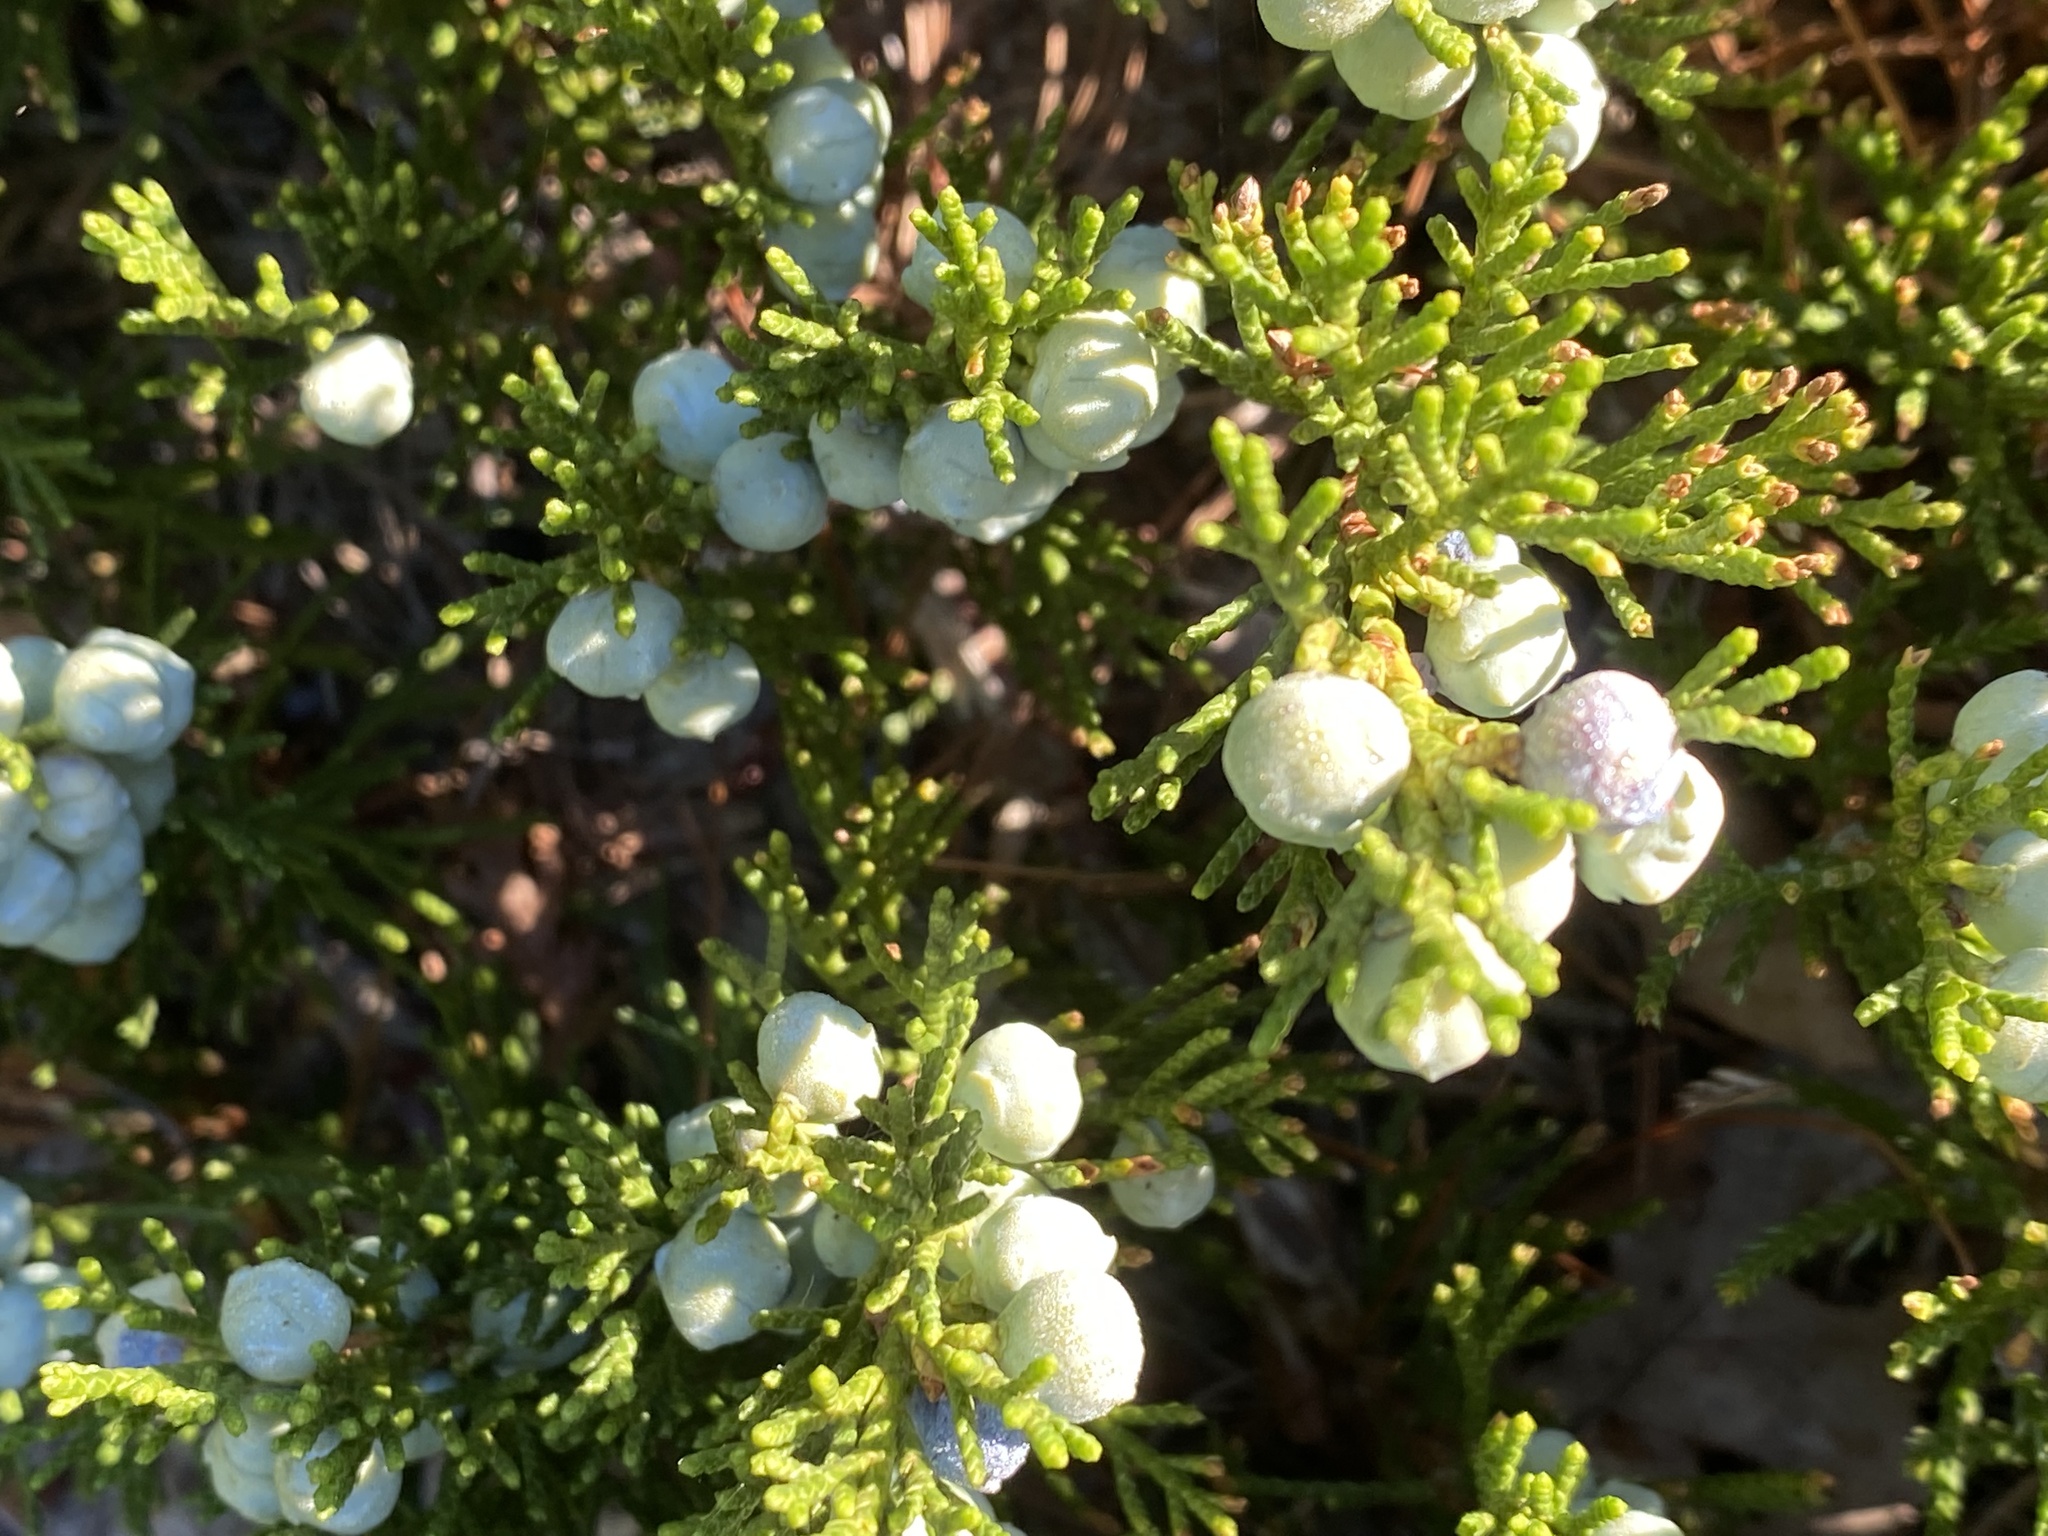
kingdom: Plantae
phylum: Tracheophyta
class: Pinopsida
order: Pinales
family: Cupressaceae
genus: Juniperus
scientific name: Juniperus horizontalis
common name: Creeping juniper
